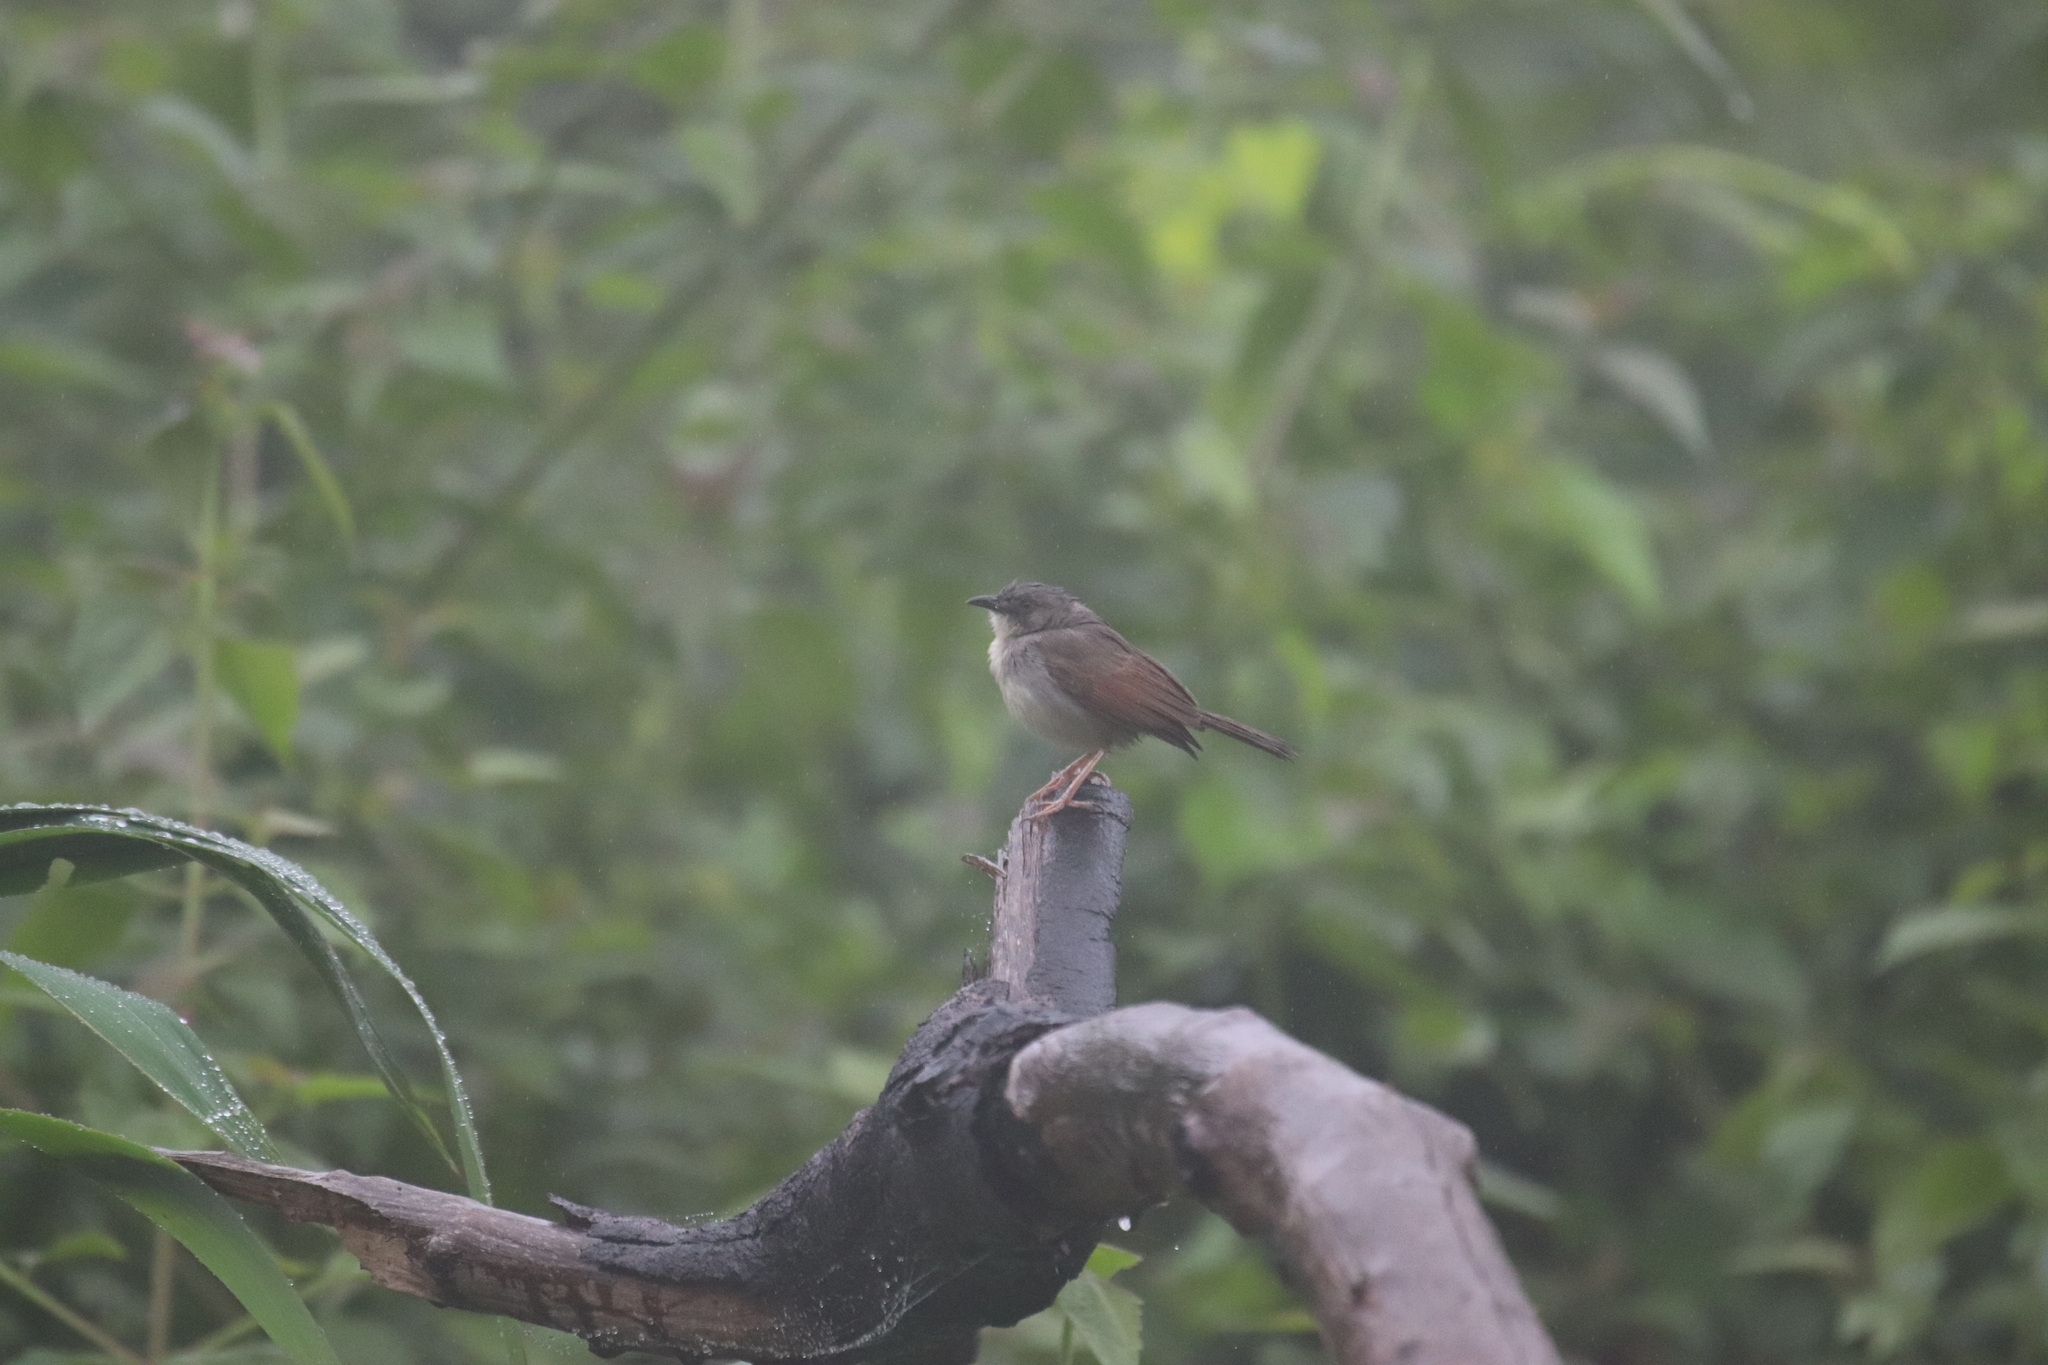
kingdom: Animalia
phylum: Chordata
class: Aves
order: Passeriformes
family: Cisticolidae
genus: Cisticola
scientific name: Cisticola lateralis
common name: Whistling cisticola
